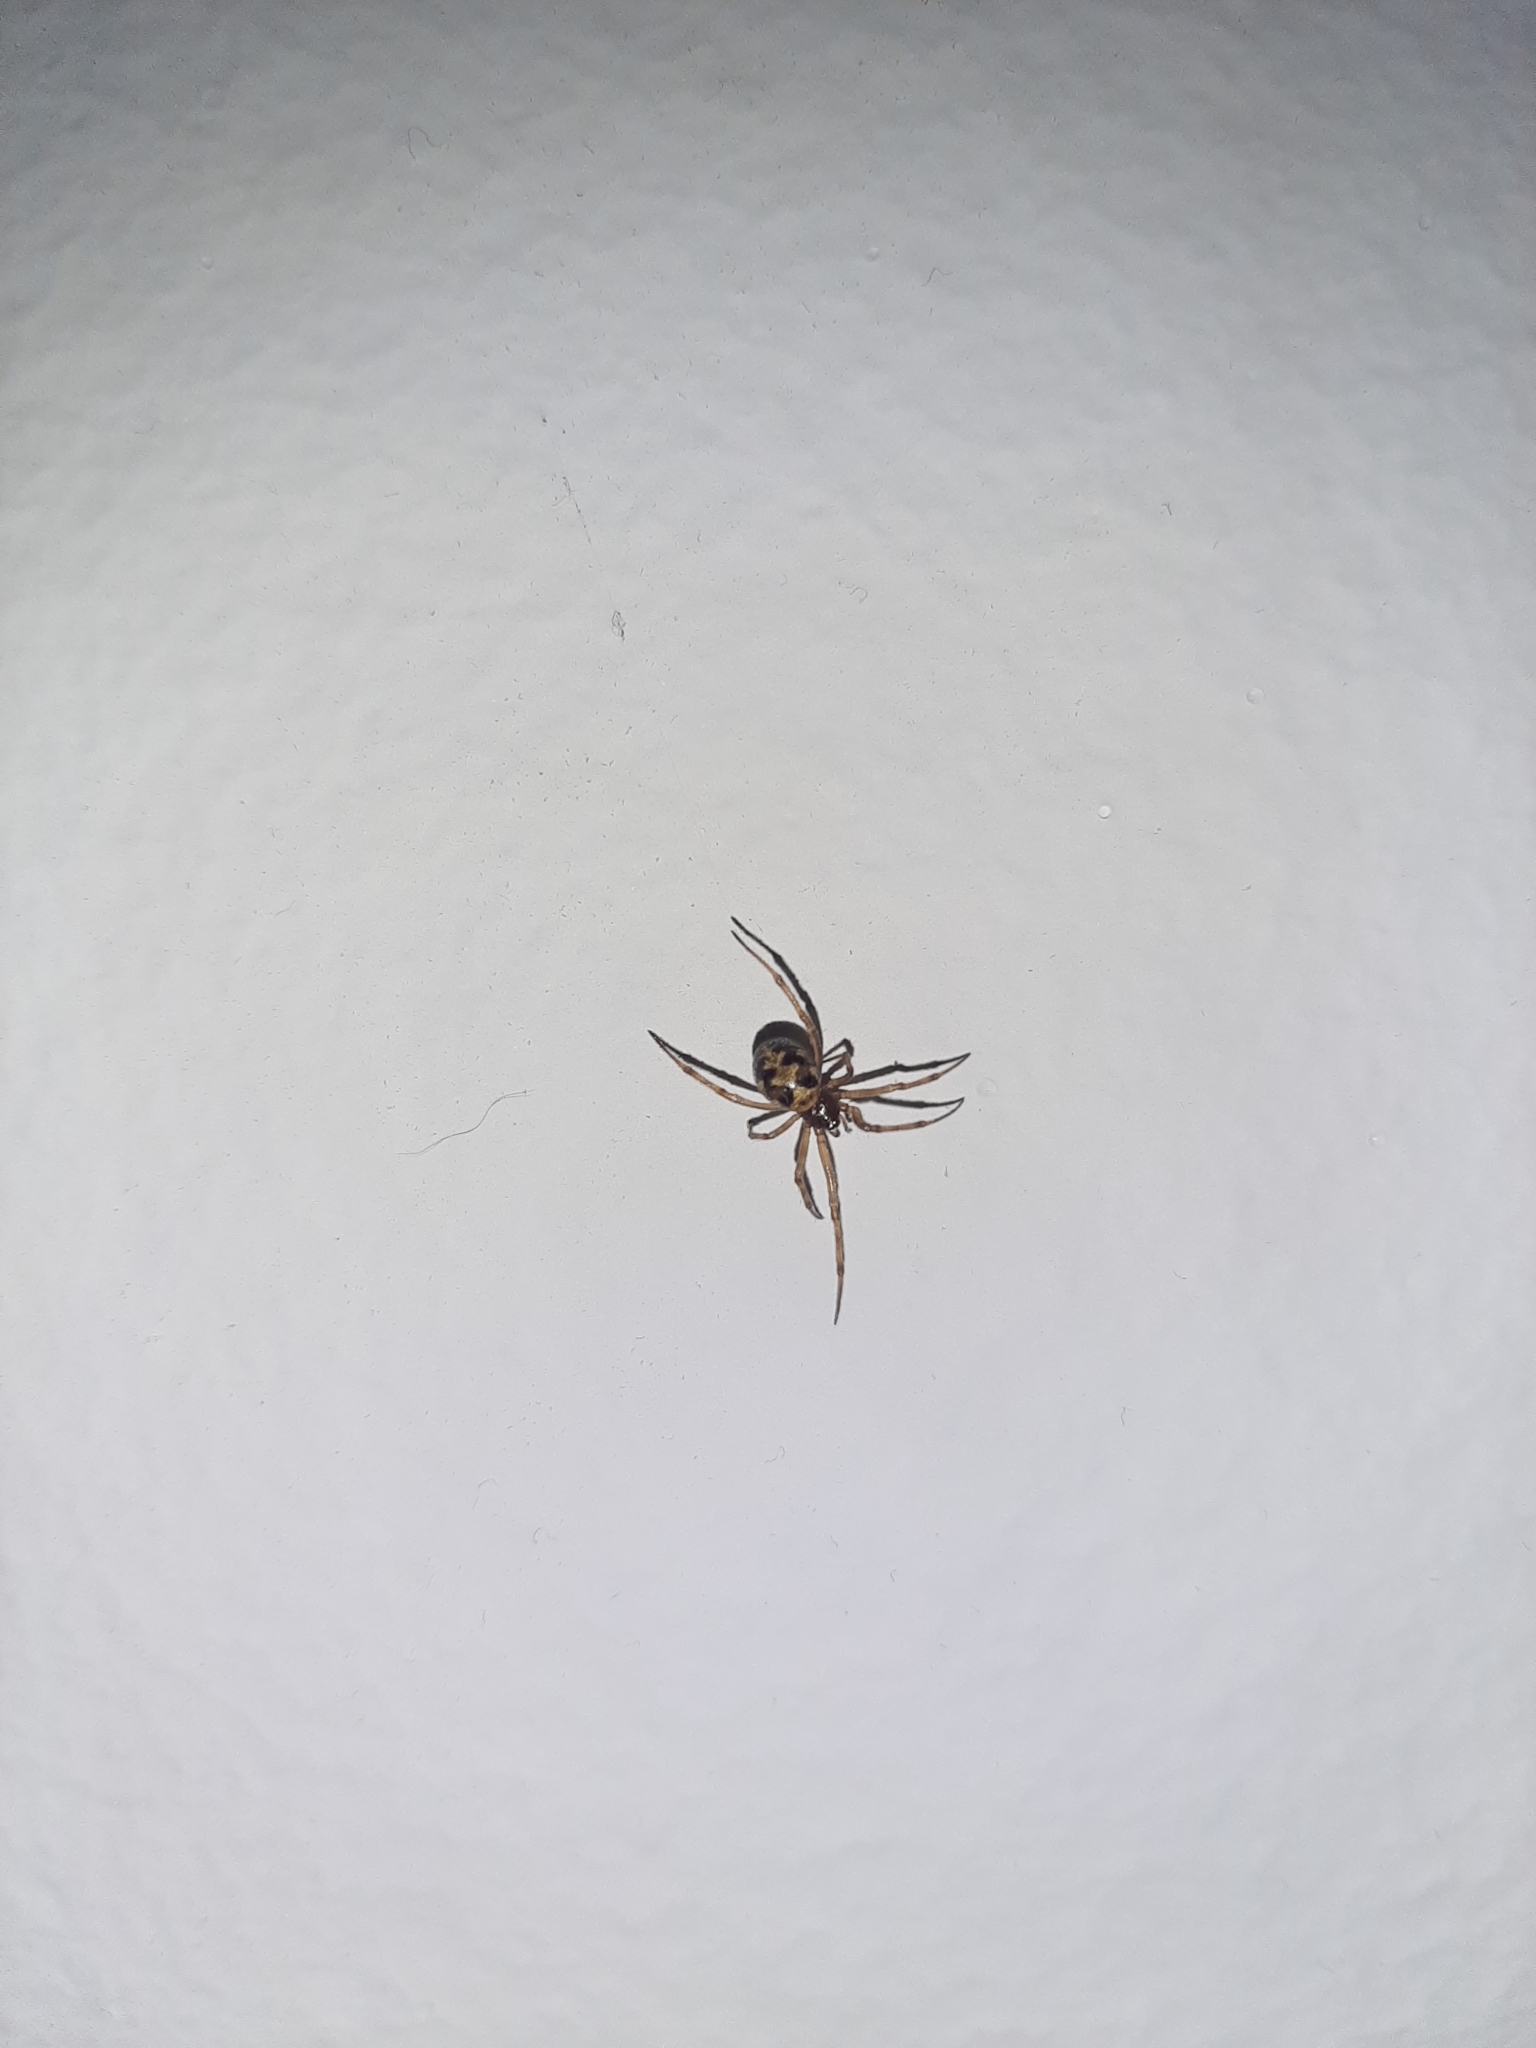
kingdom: Animalia
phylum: Arthropoda
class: Arachnida
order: Araneae
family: Theridiidae
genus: Steatoda
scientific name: Steatoda triangulosa
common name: Triangulate bud spider
